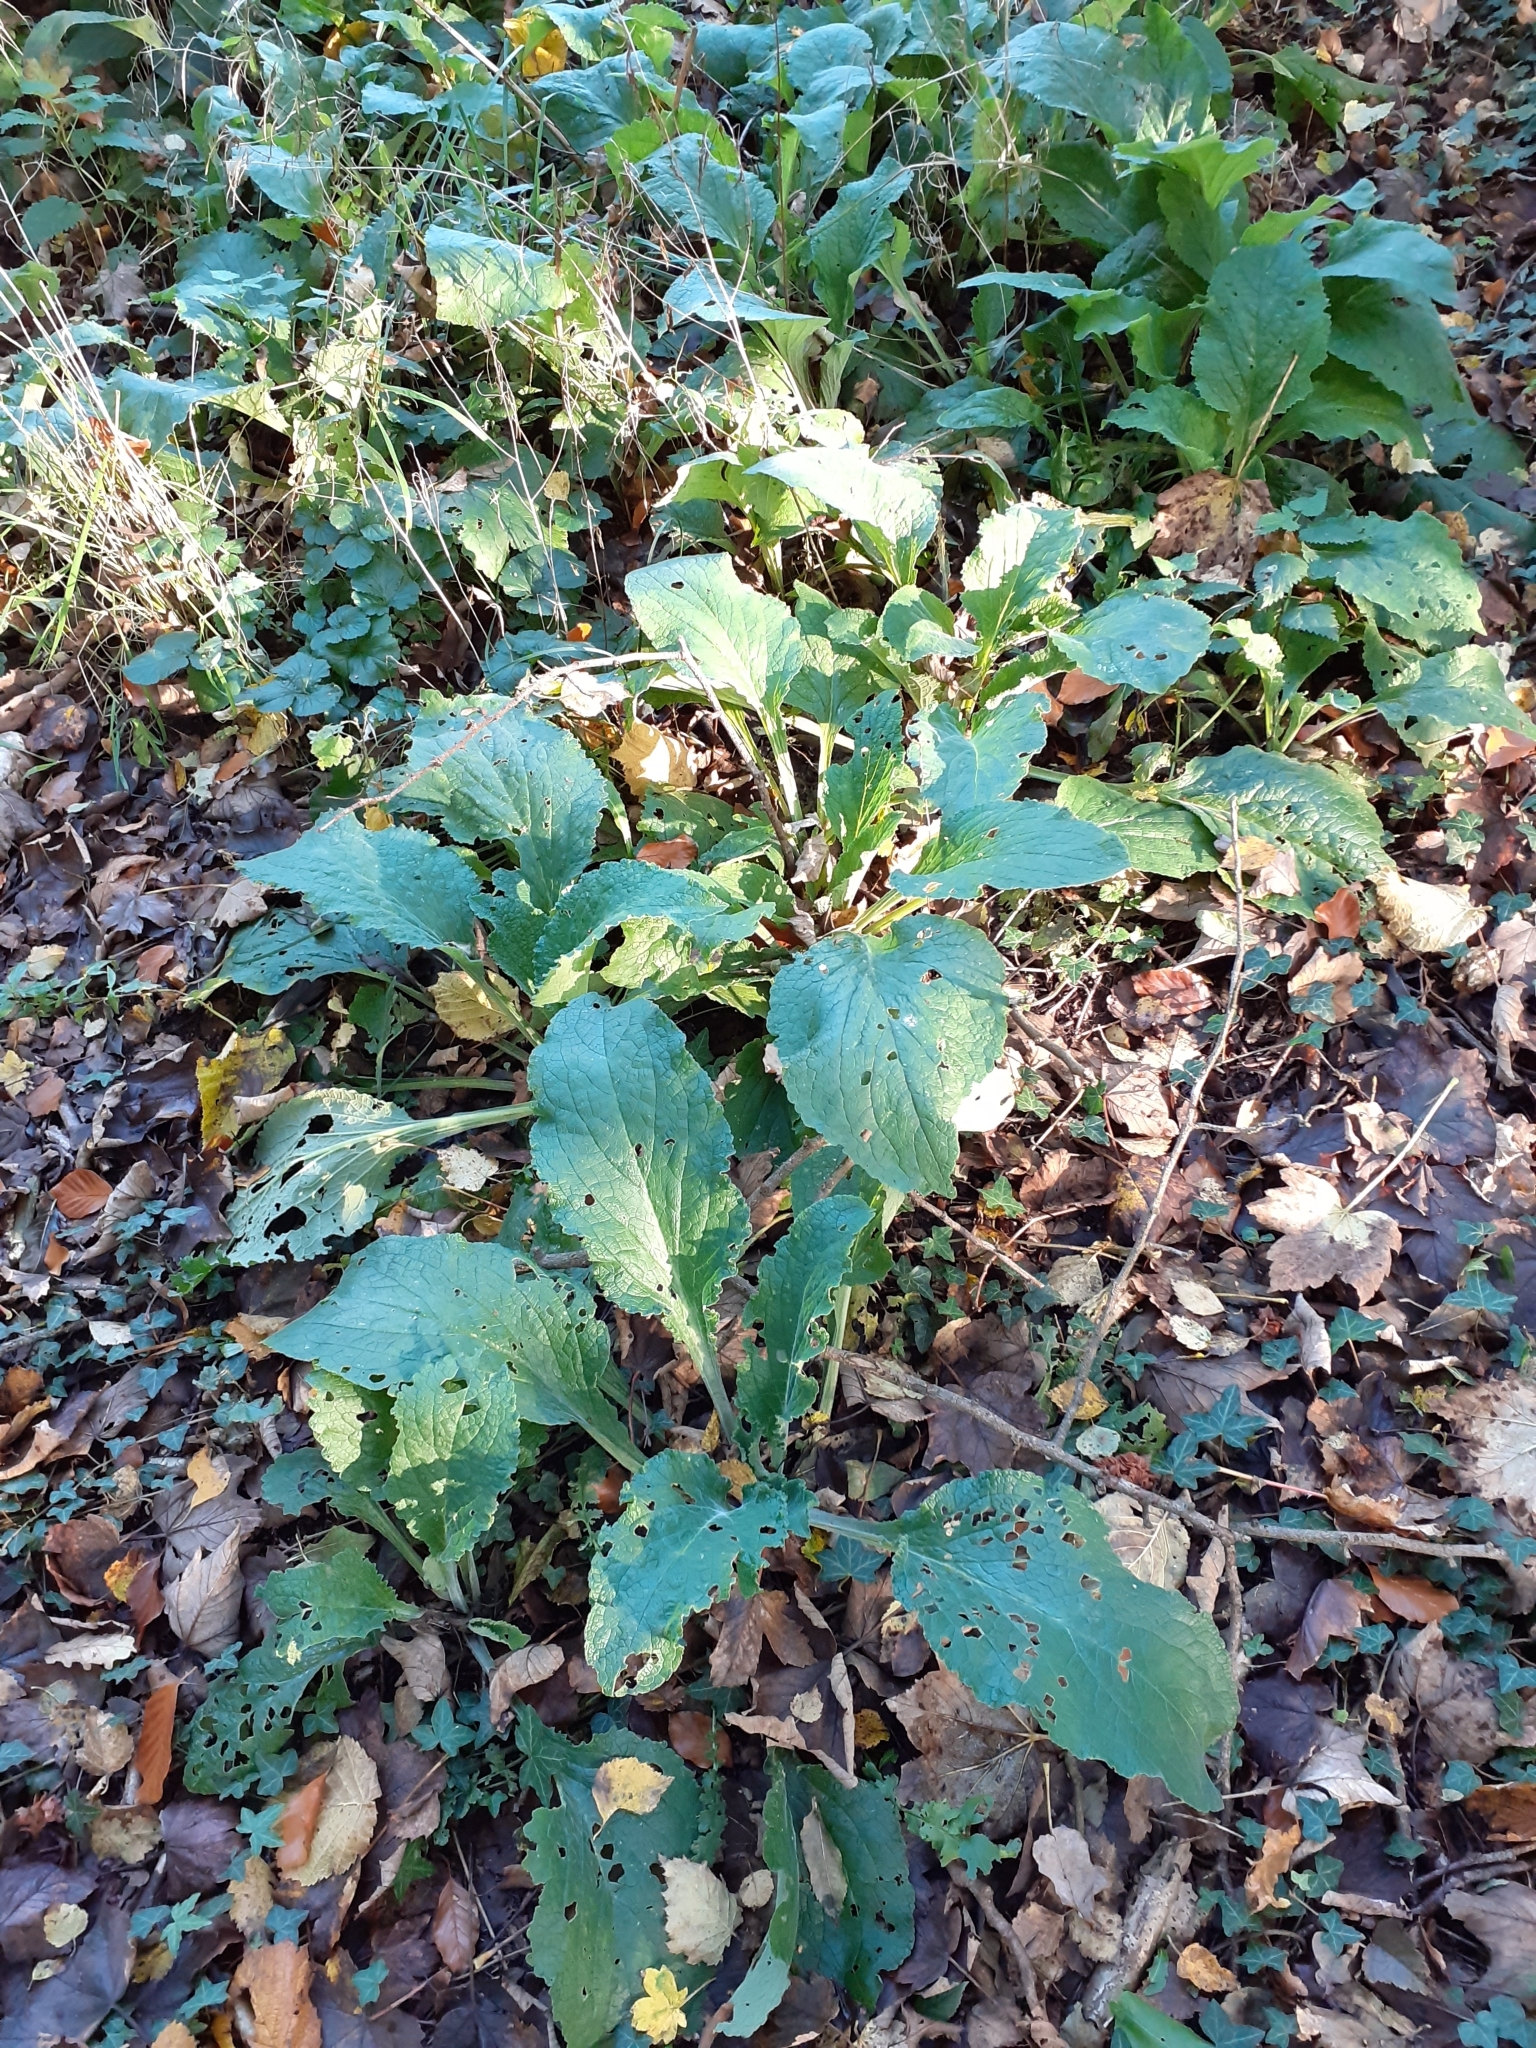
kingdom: Plantae
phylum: Tracheophyta
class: Magnoliopsida
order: Lamiales
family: Plantaginaceae
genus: Digitalis
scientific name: Digitalis purpurea
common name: Foxglove
